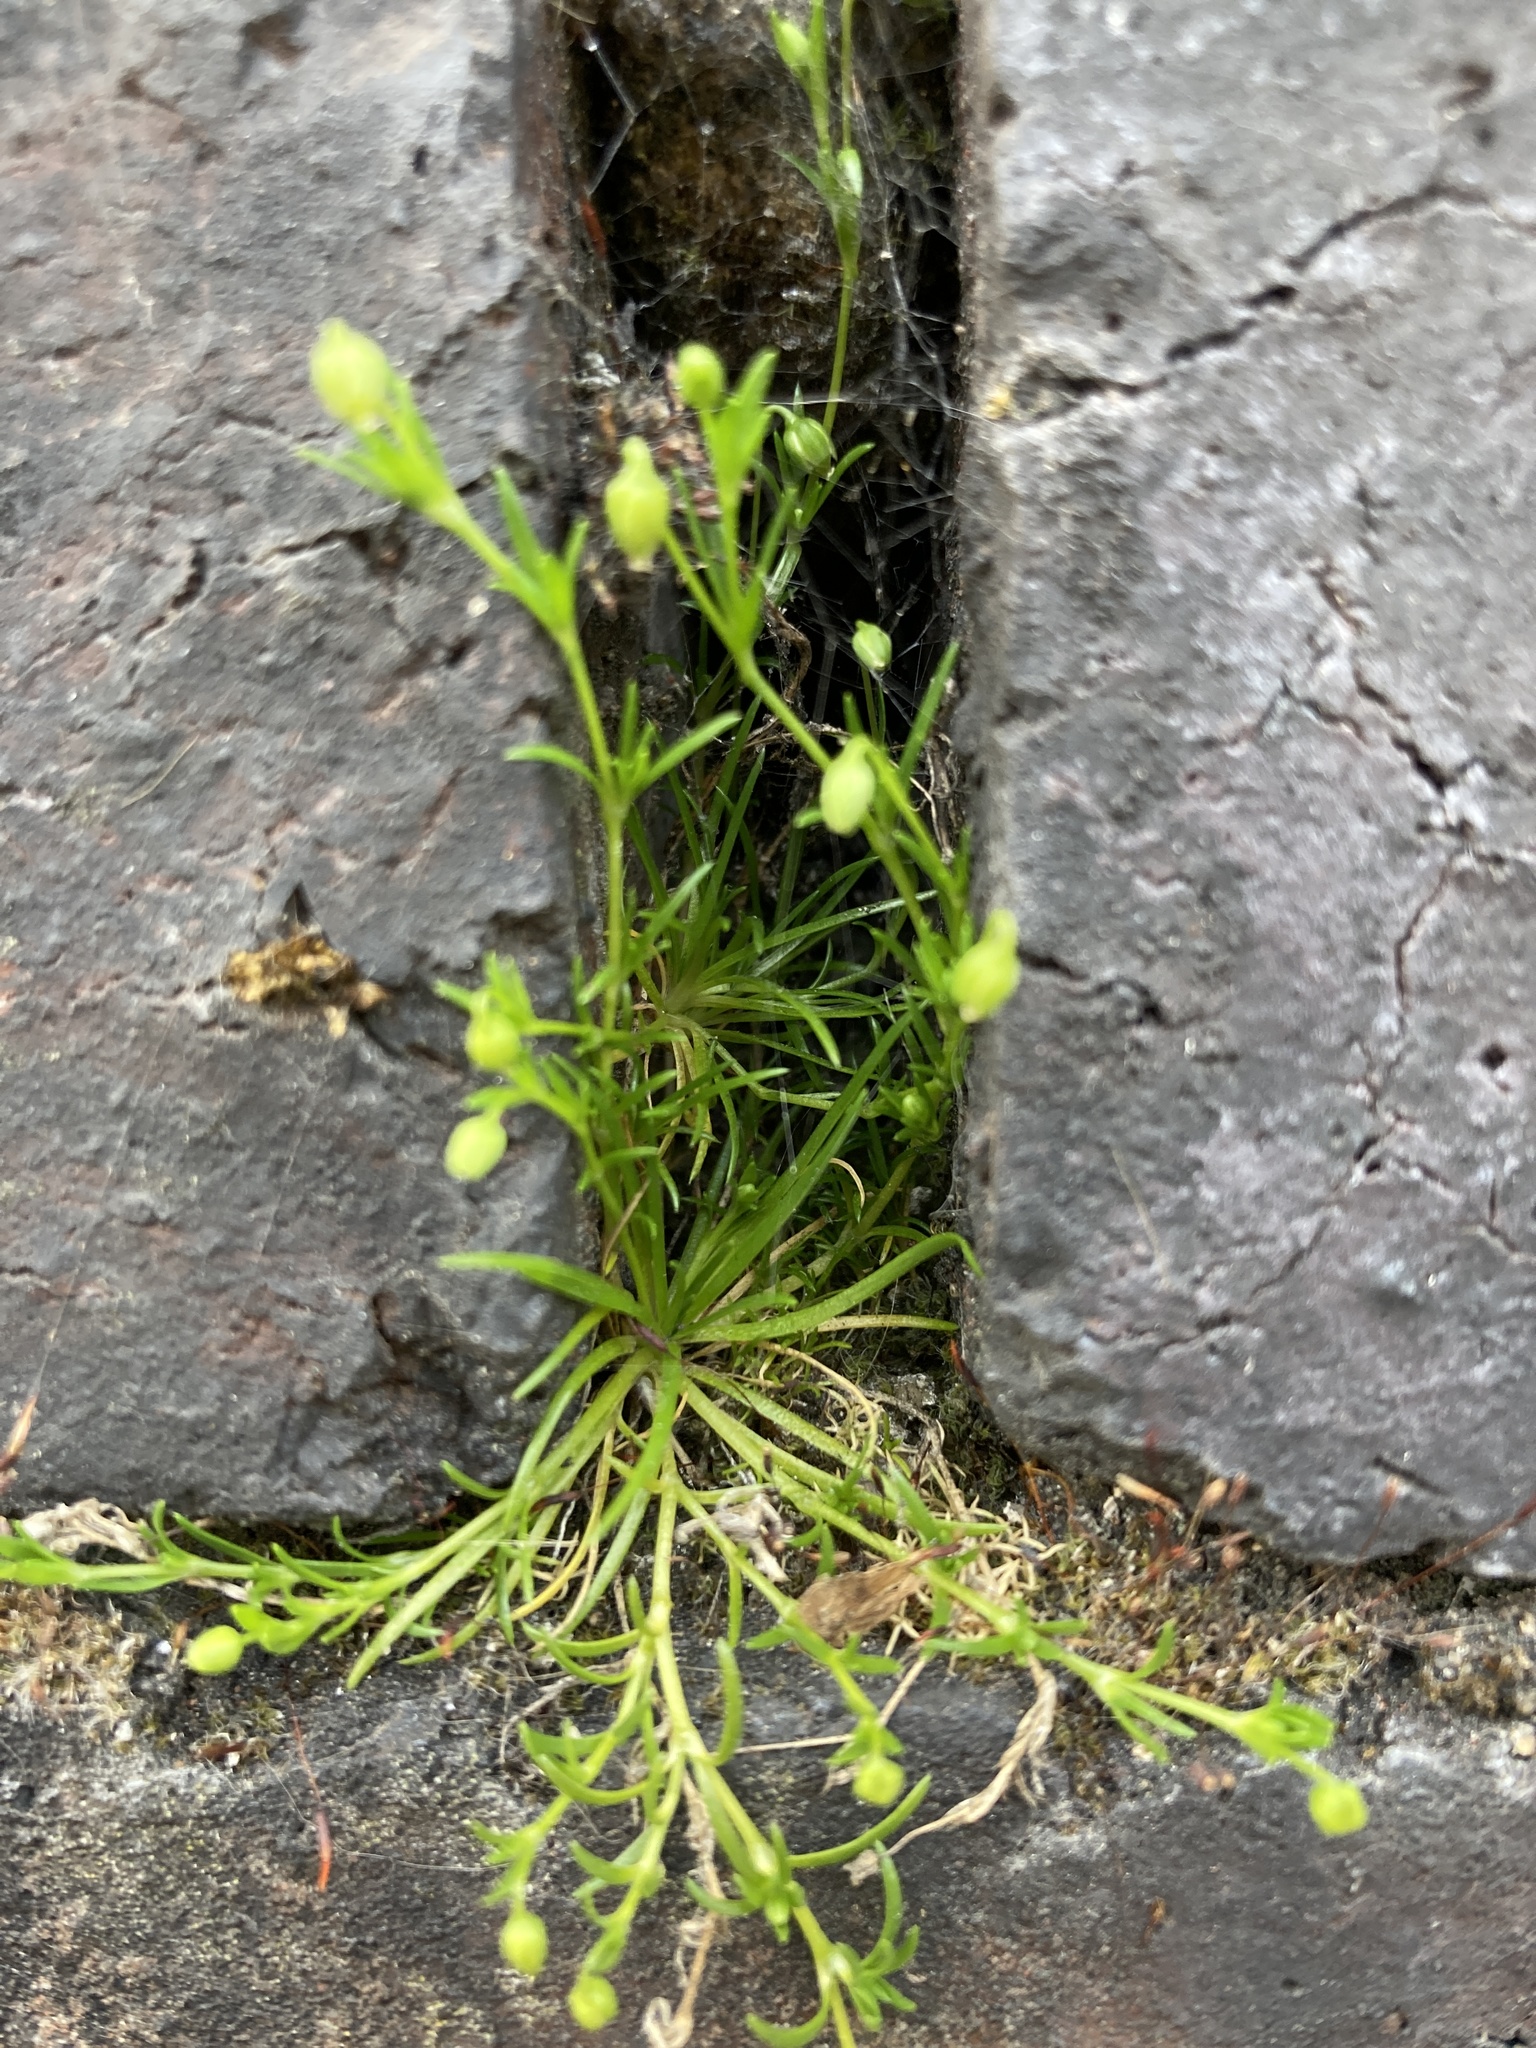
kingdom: Plantae
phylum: Tracheophyta
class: Magnoliopsida
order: Caryophyllales
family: Caryophyllaceae
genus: Sagina
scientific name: Sagina procumbens
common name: Procumbent pearlwort
